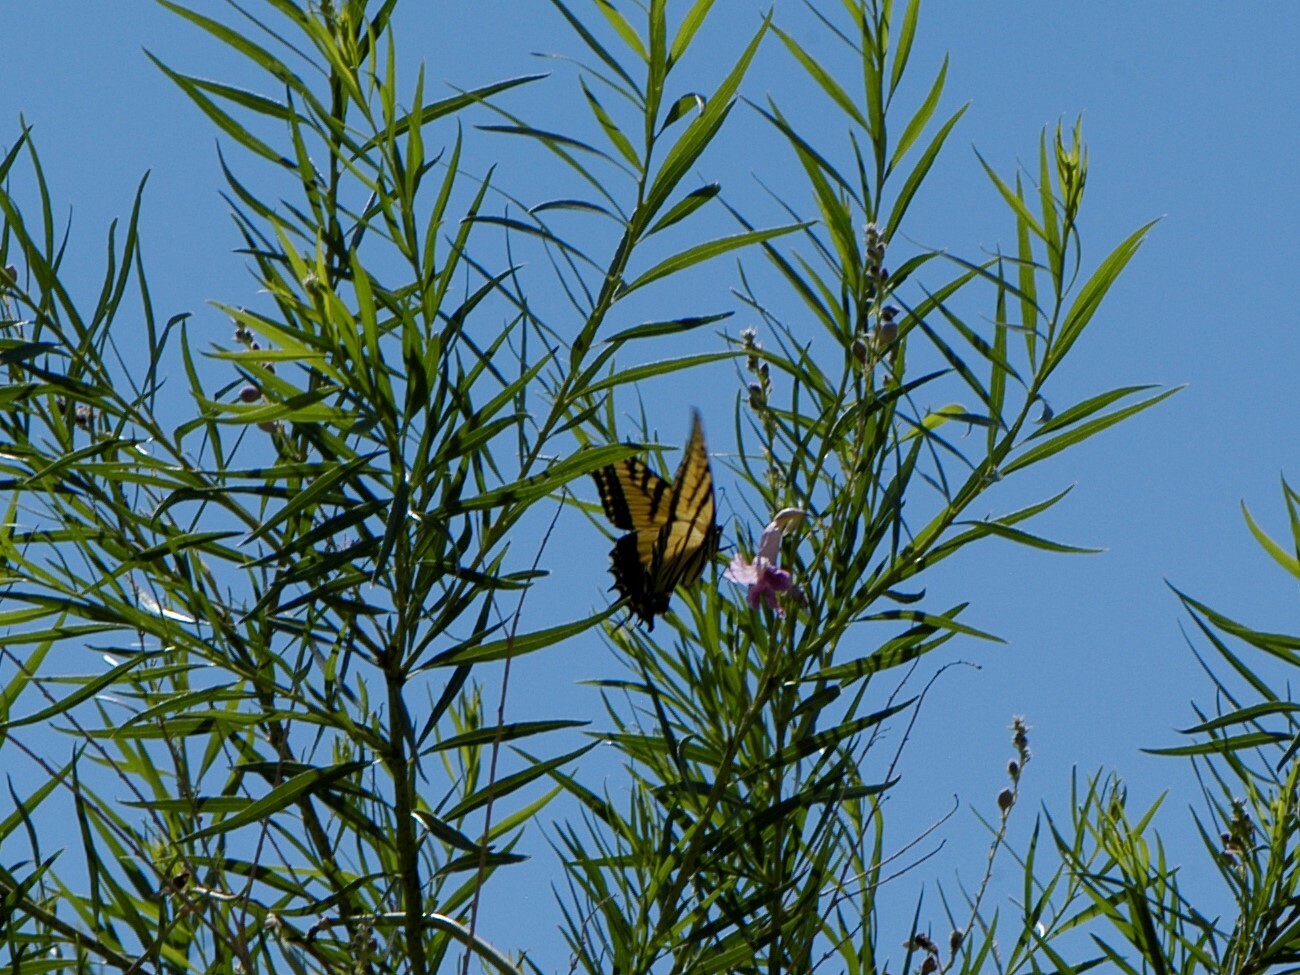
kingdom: Animalia
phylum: Arthropoda
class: Insecta
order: Lepidoptera
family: Papilionidae
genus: Papilio
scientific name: Papilio multicaudata
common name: Two-tailed tiger swallowtail
